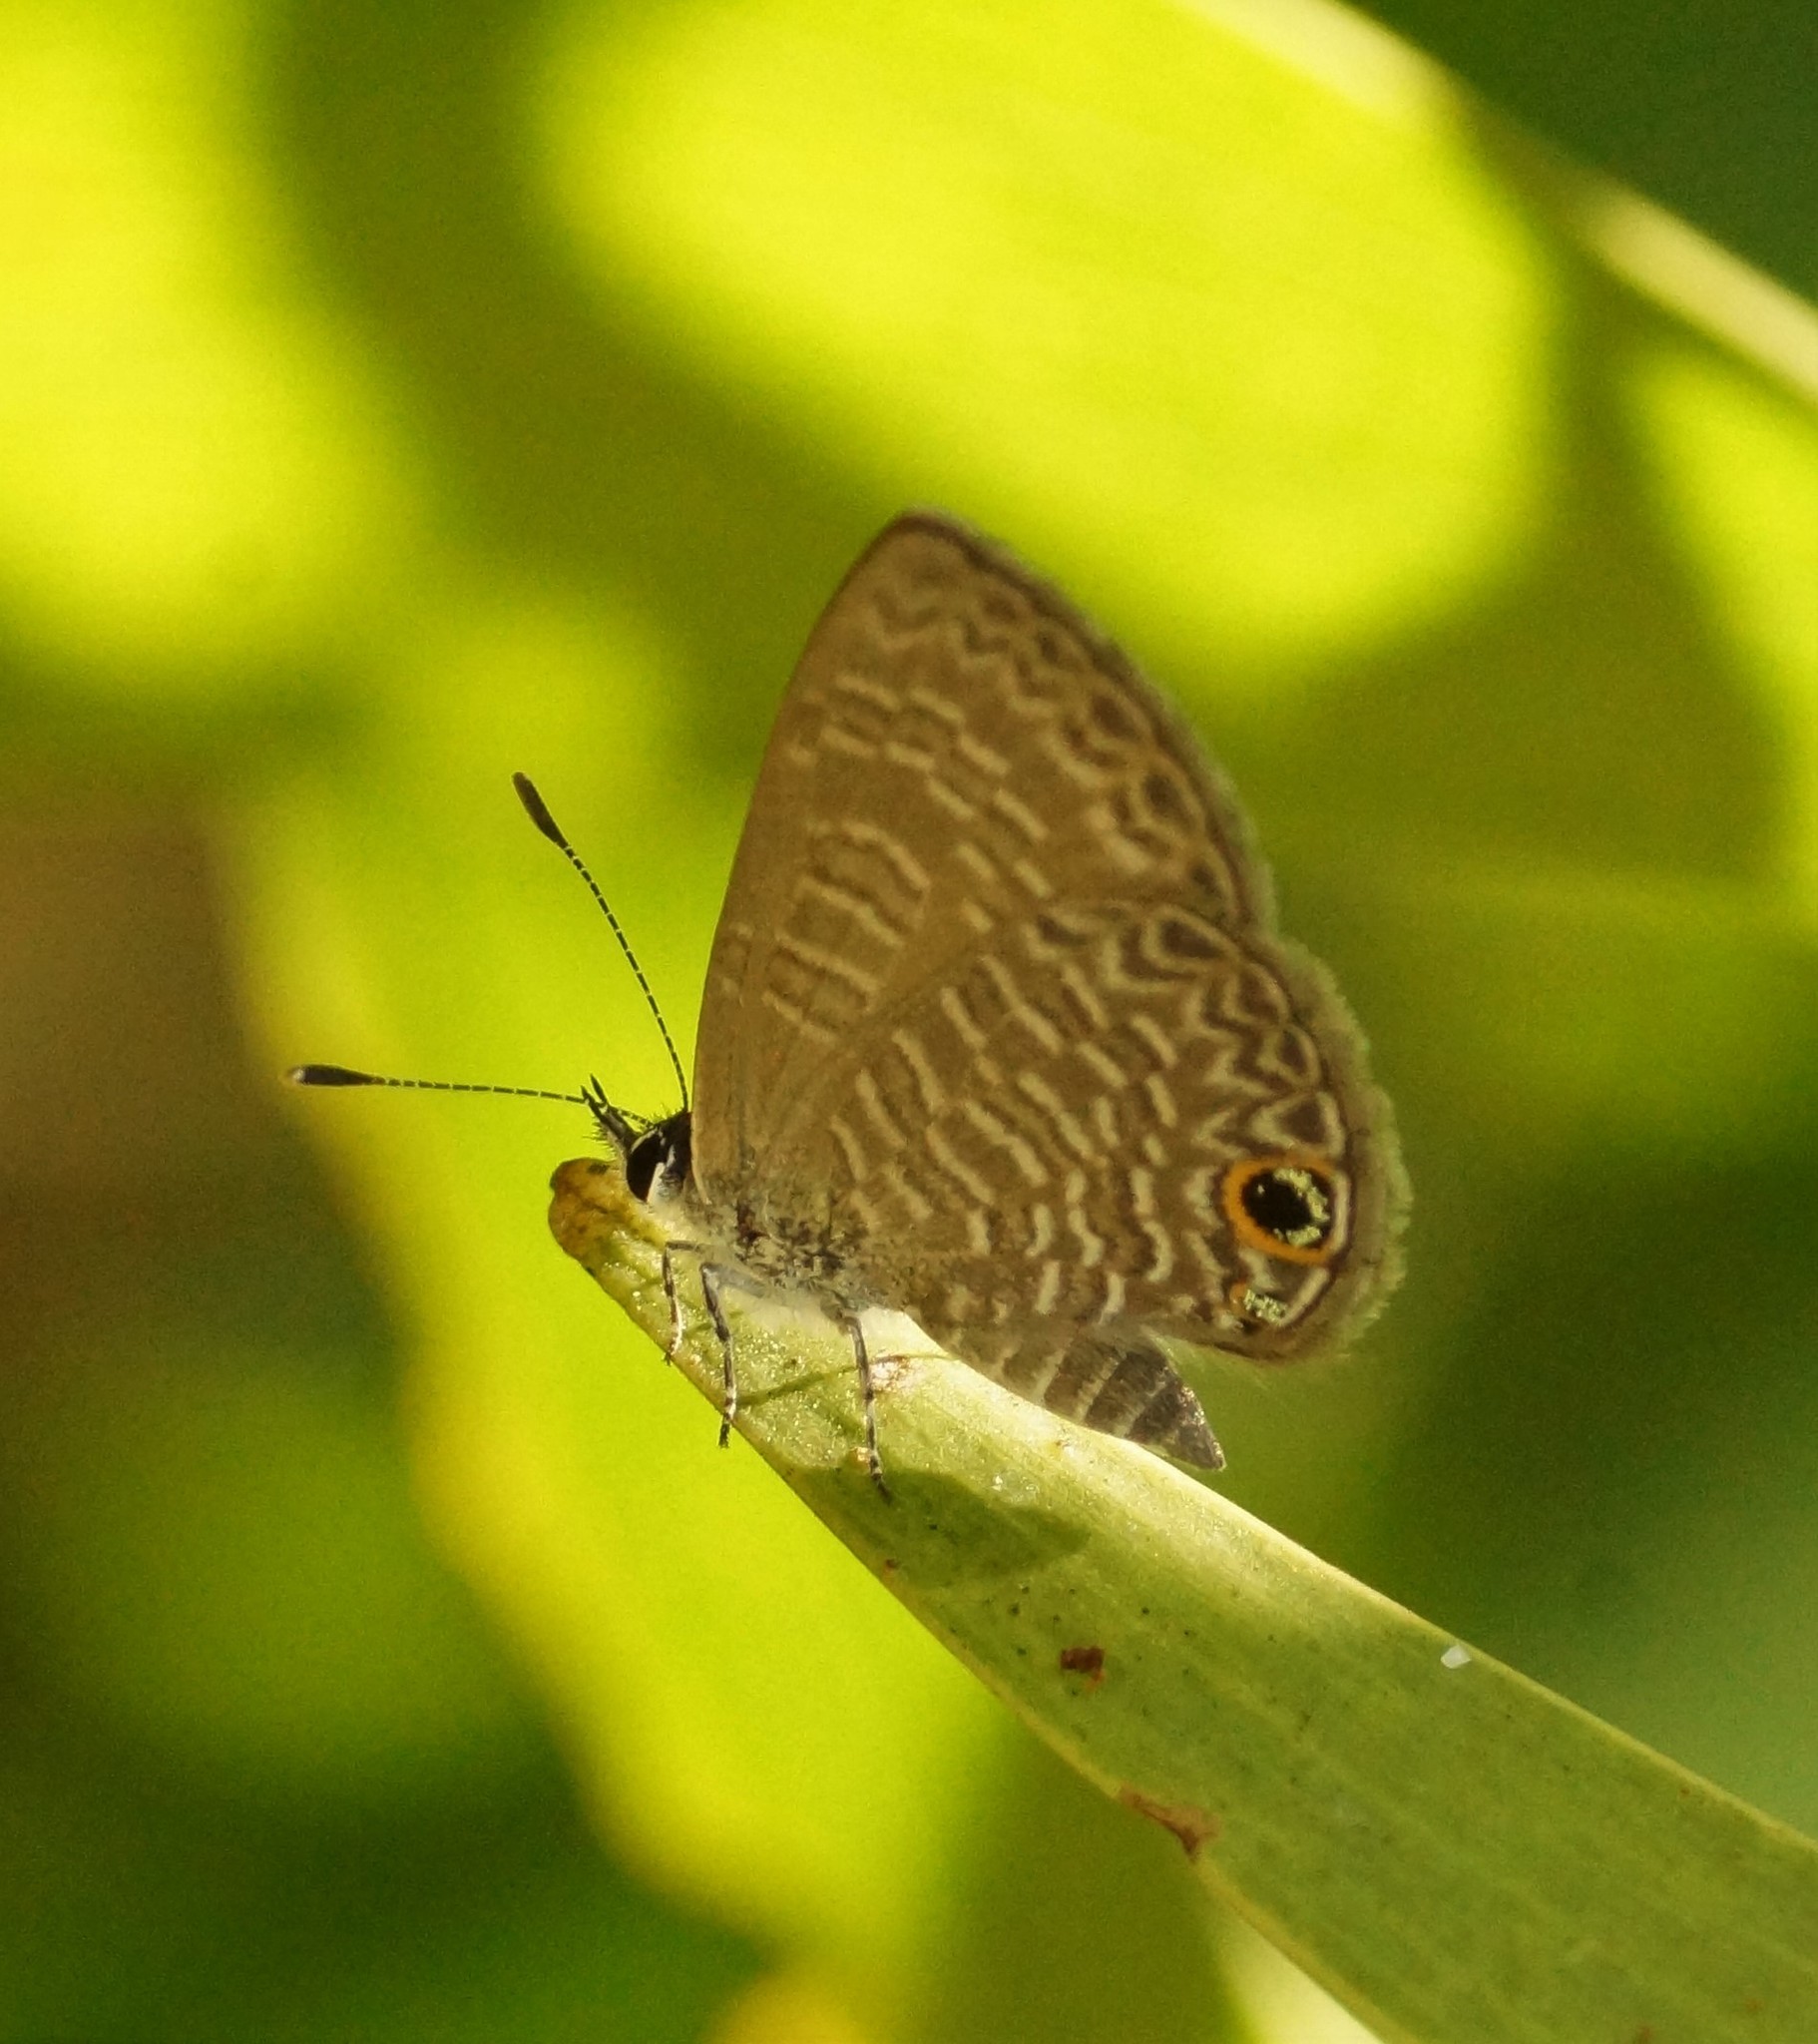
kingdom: Animalia
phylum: Arthropoda
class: Insecta
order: Lepidoptera
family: Lycaenidae
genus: Prosotas
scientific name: Prosotas dubiosa
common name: Tailless lineblue
